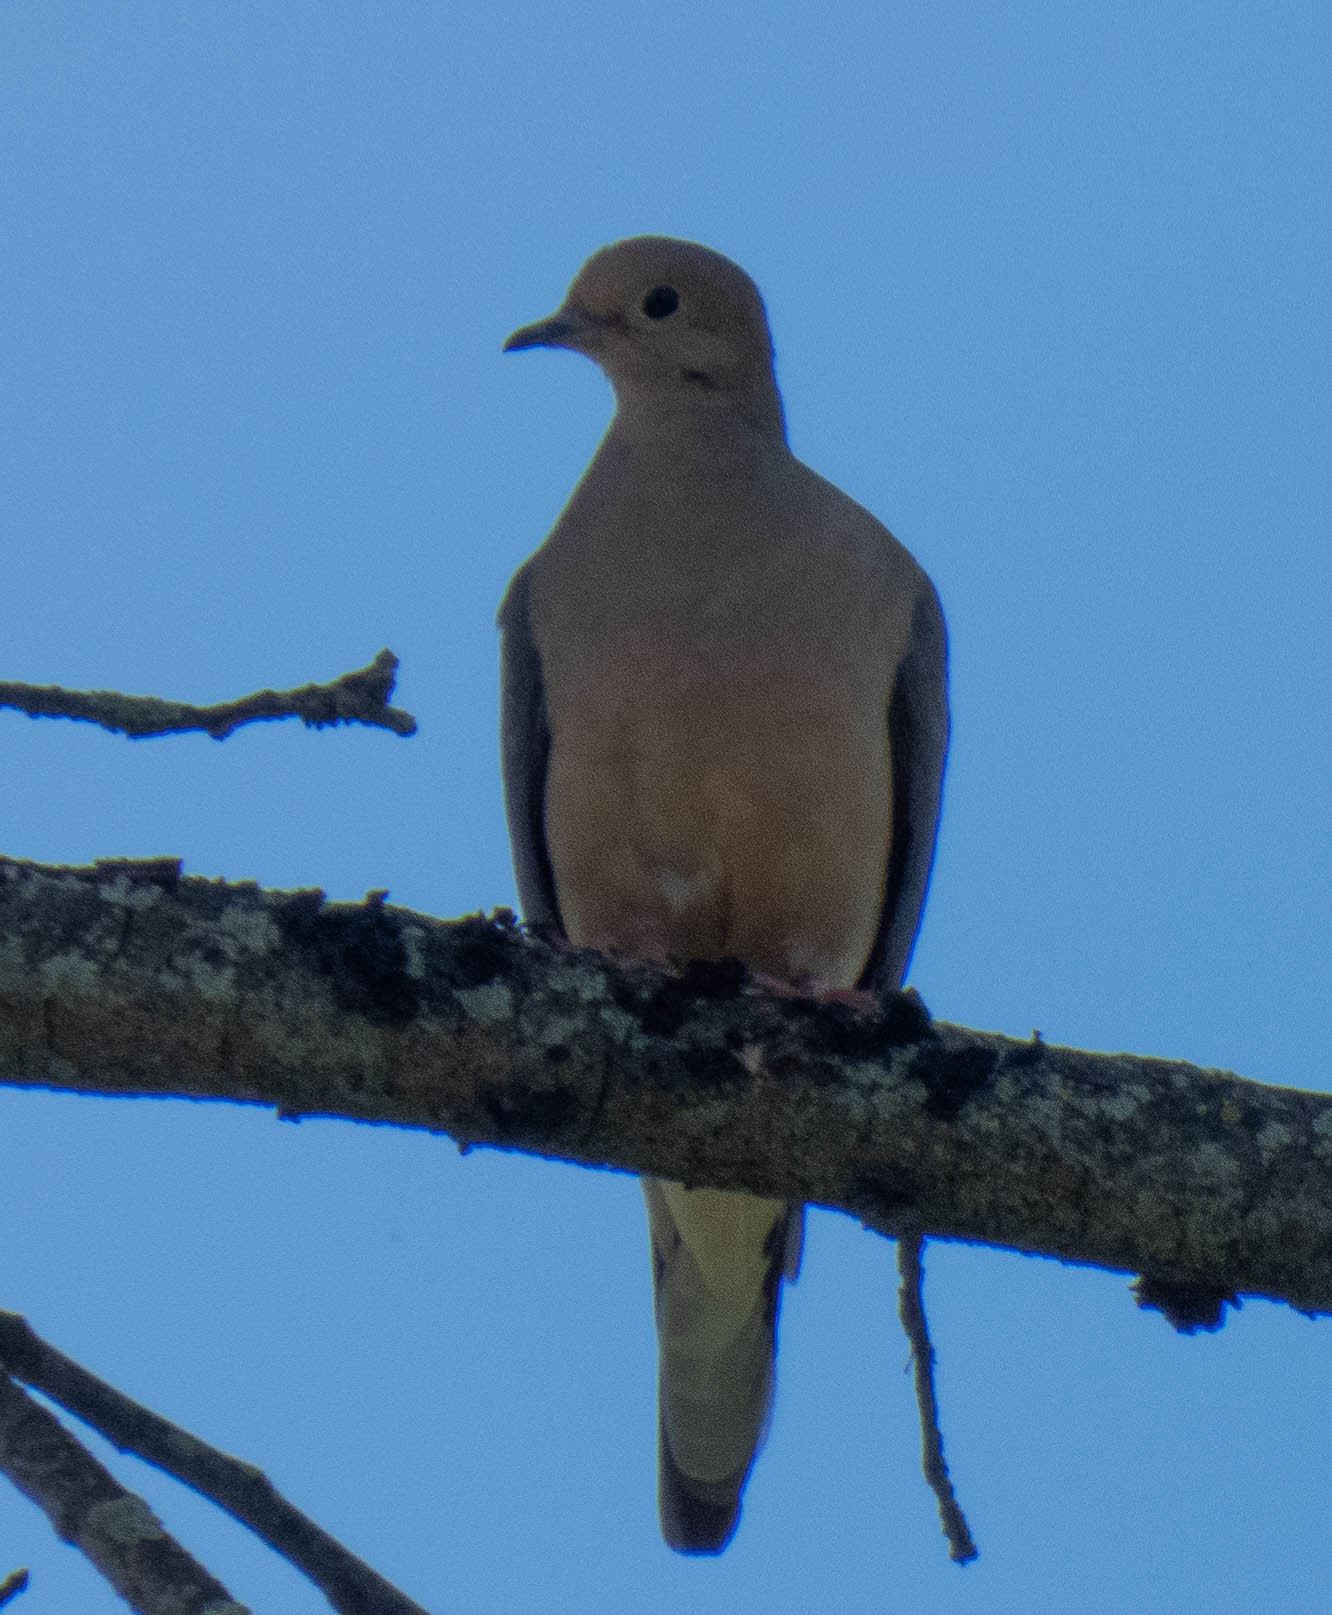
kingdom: Animalia
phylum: Chordata
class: Aves
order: Columbiformes
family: Columbidae
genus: Zenaida
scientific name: Zenaida macroura
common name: Mourning dove
